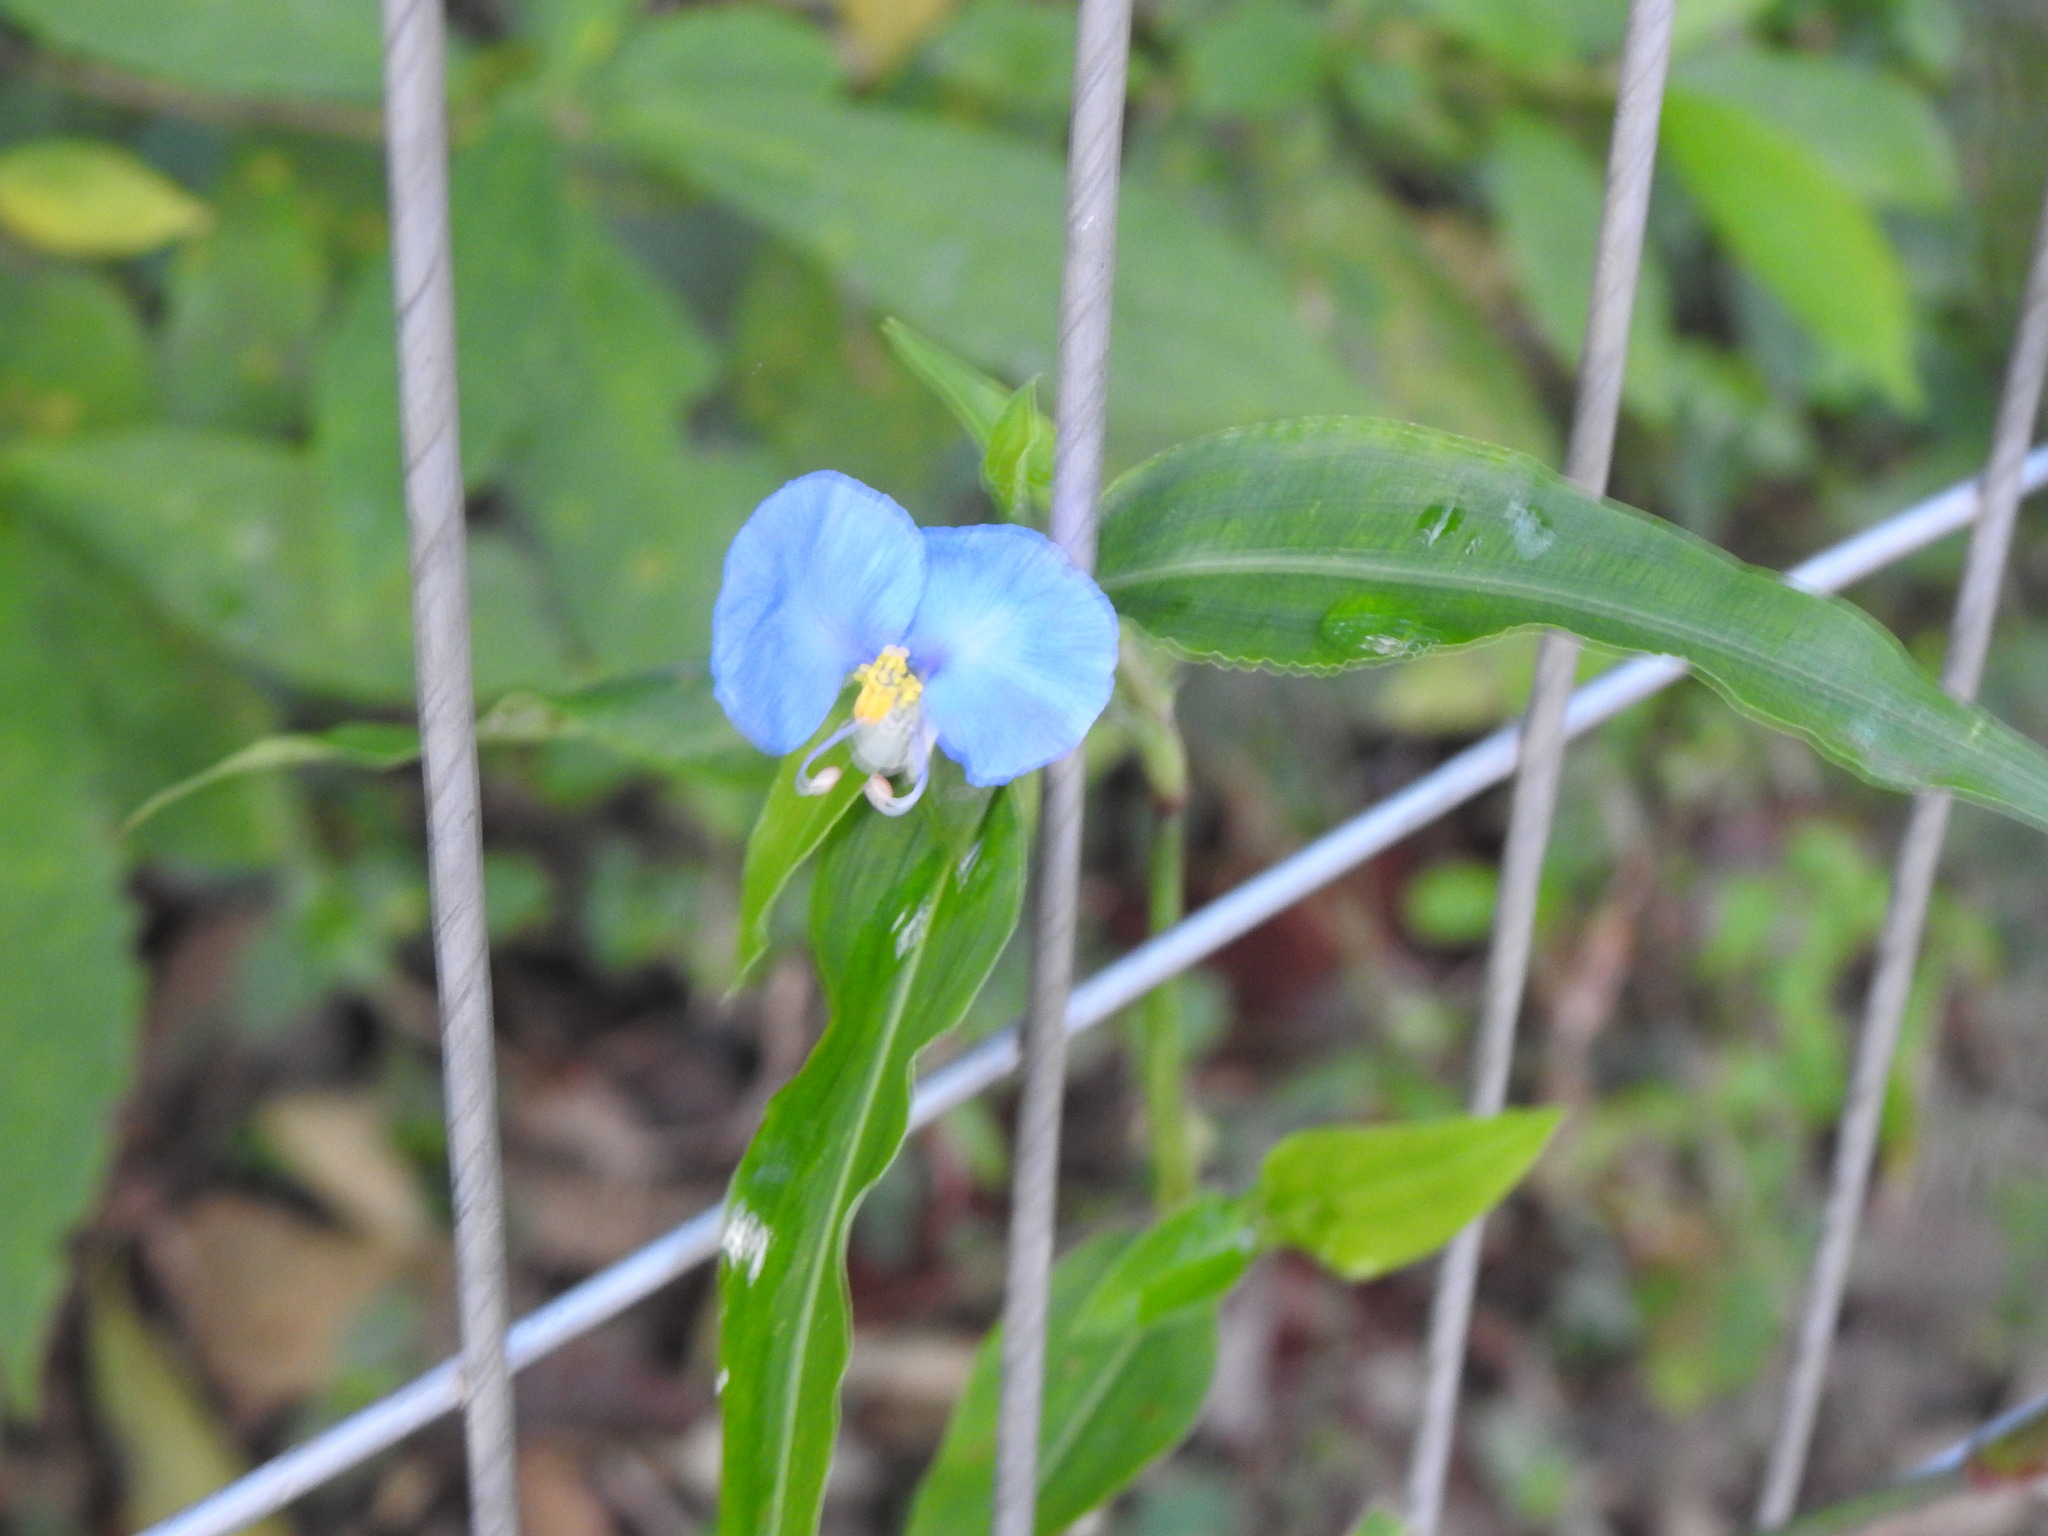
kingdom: Plantae
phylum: Tracheophyta
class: Liliopsida
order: Commelinales
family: Commelinaceae
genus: Commelina
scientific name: Commelina erecta
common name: Blousel blommetjie
